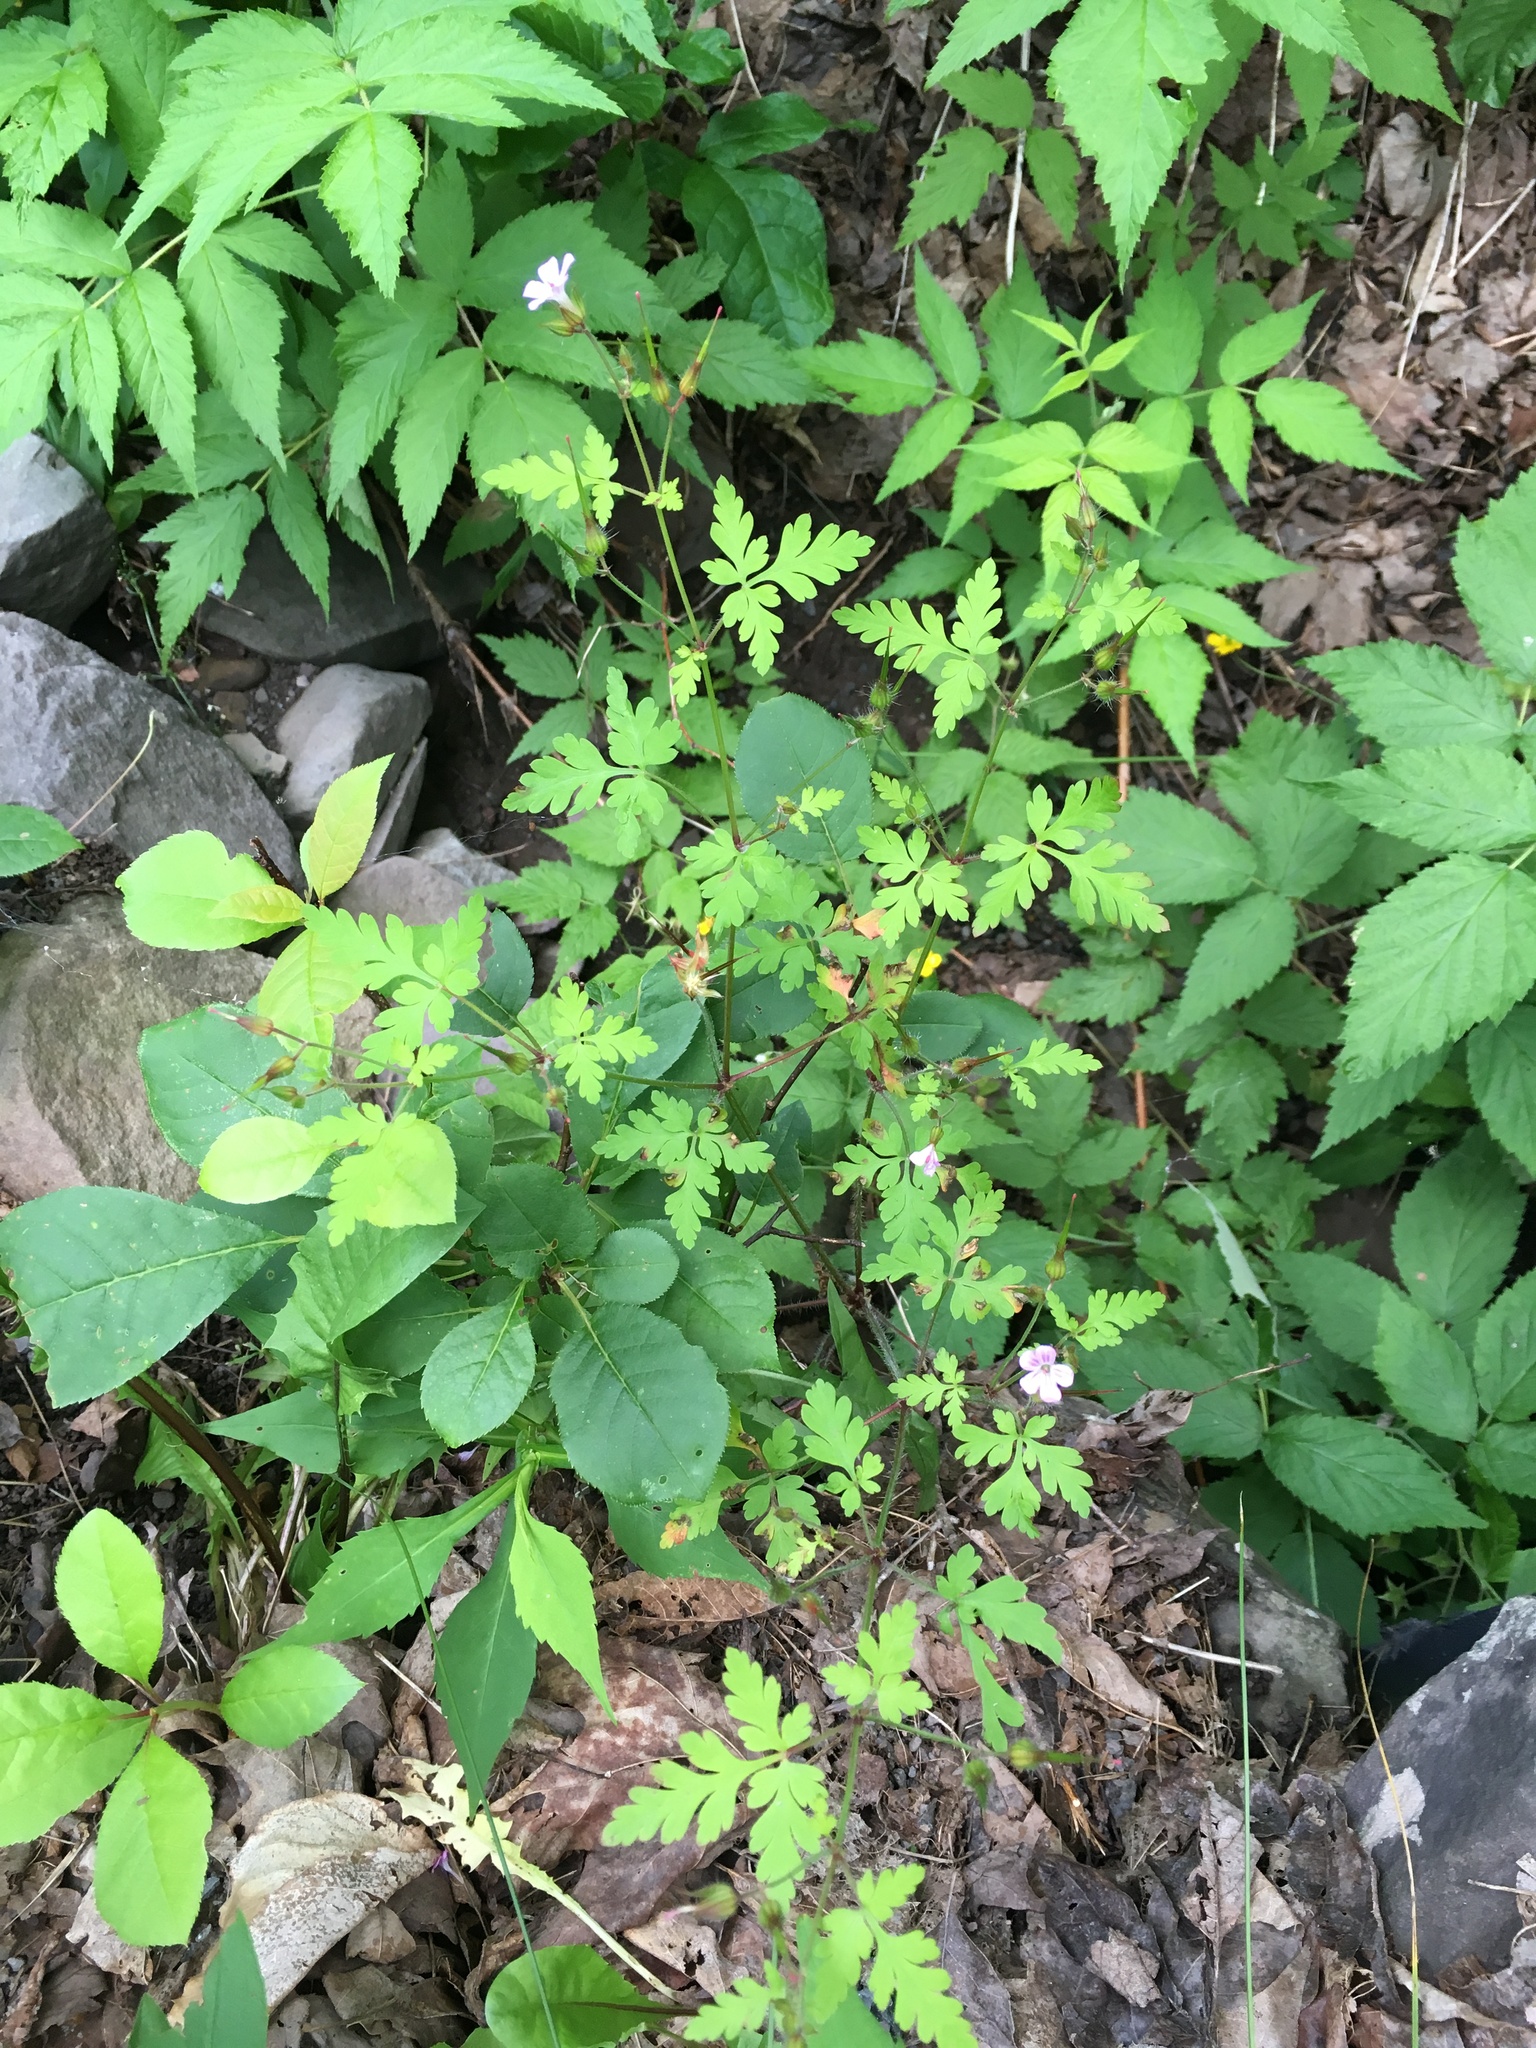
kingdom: Plantae
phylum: Tracheophyta
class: Magnoliopsida
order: Geraniales
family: Geraniaceae
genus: Geranium
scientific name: Geranium robertianum
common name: Herb-robert
